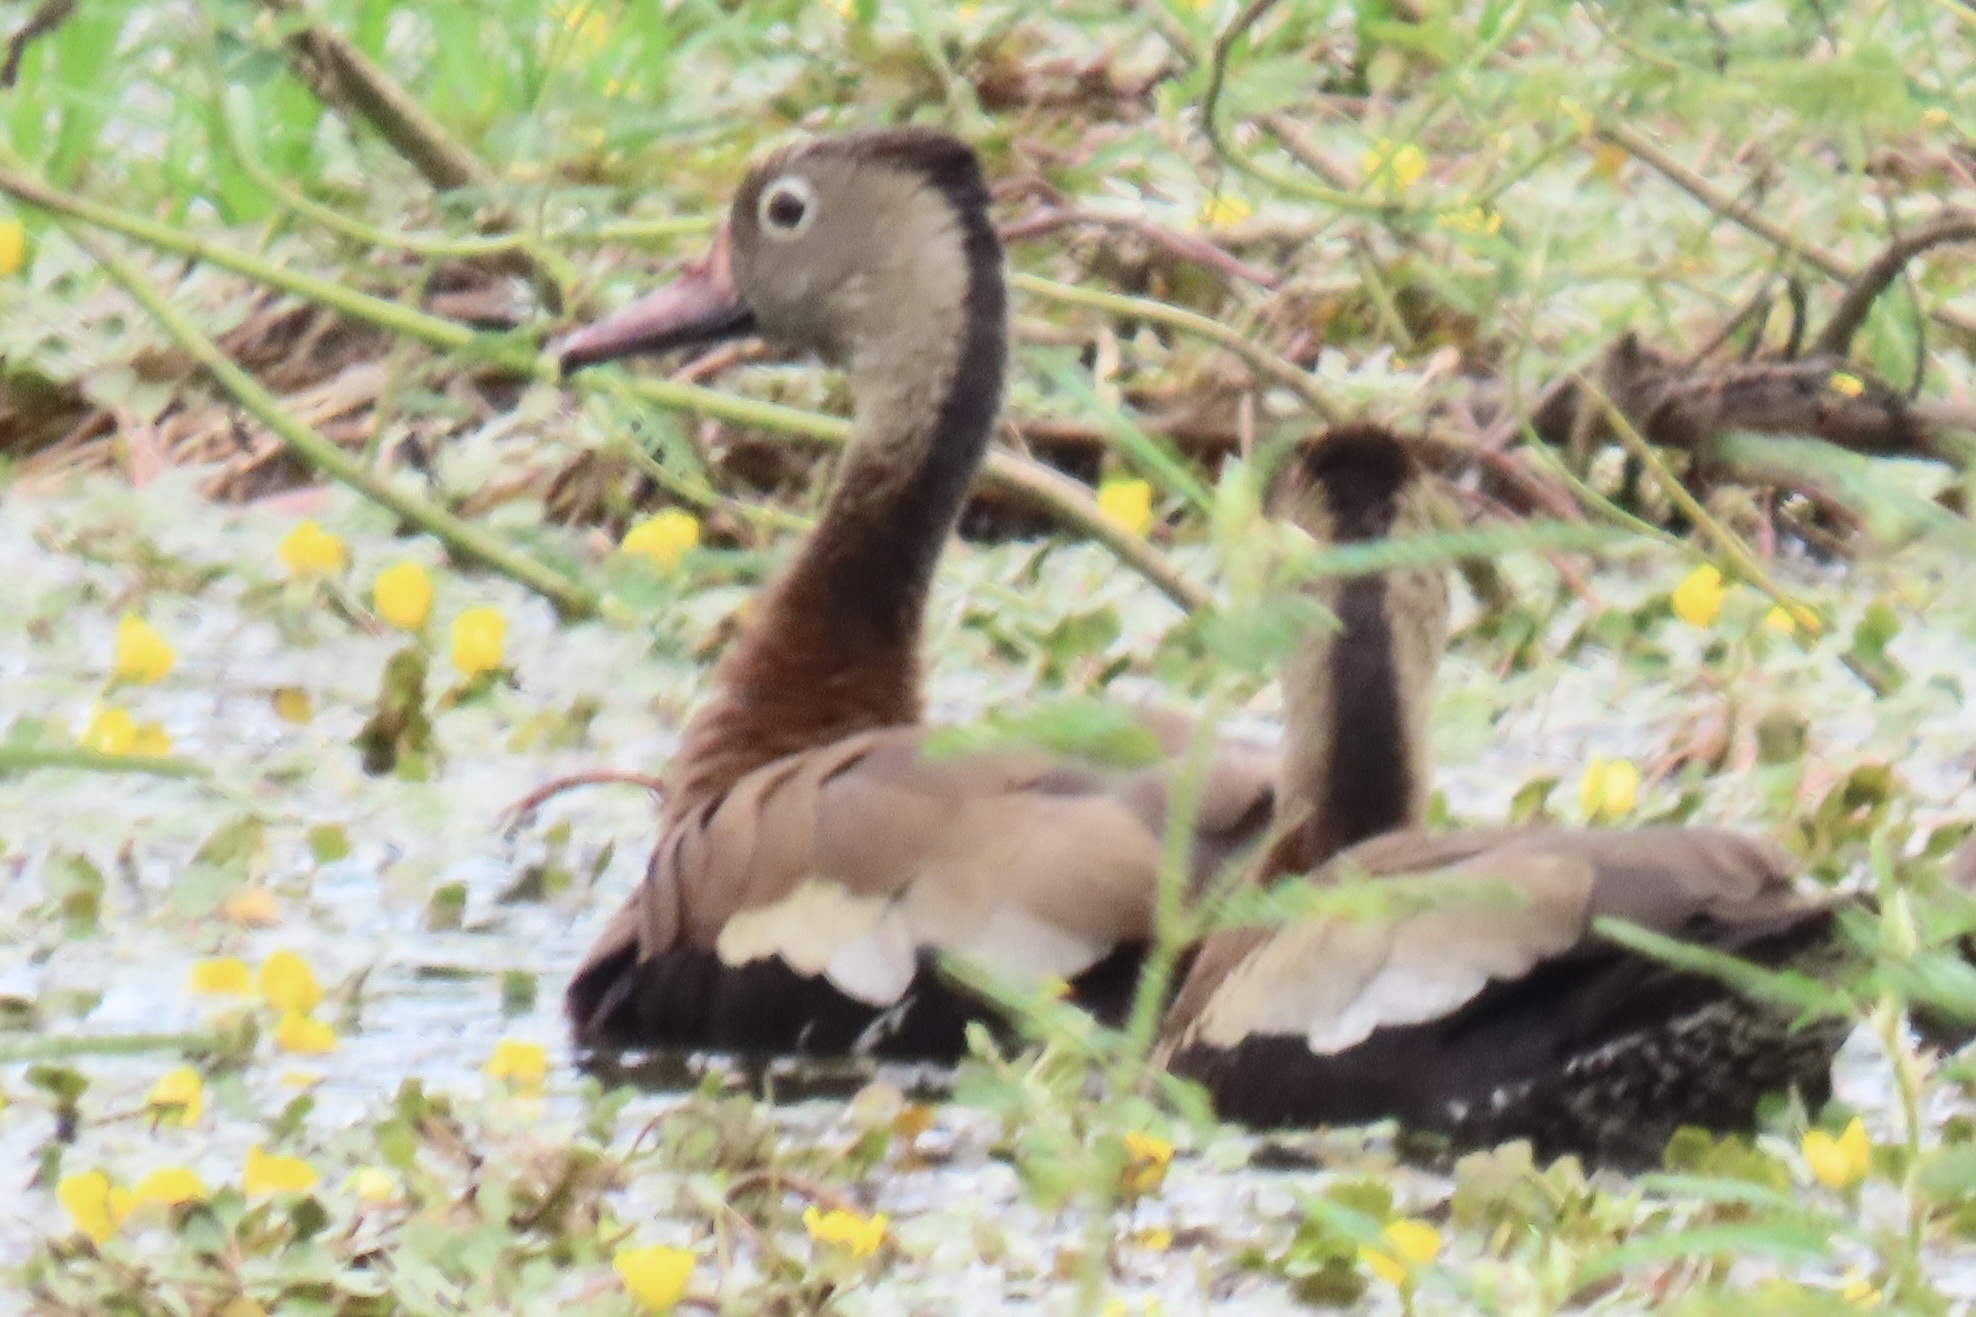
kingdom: Animalia
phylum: Chordata
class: Aves
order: Anseriformes
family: Anatidae
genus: Dendrocygna
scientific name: Dendrocygna autumnalis
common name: Black-bellied whistling duck
